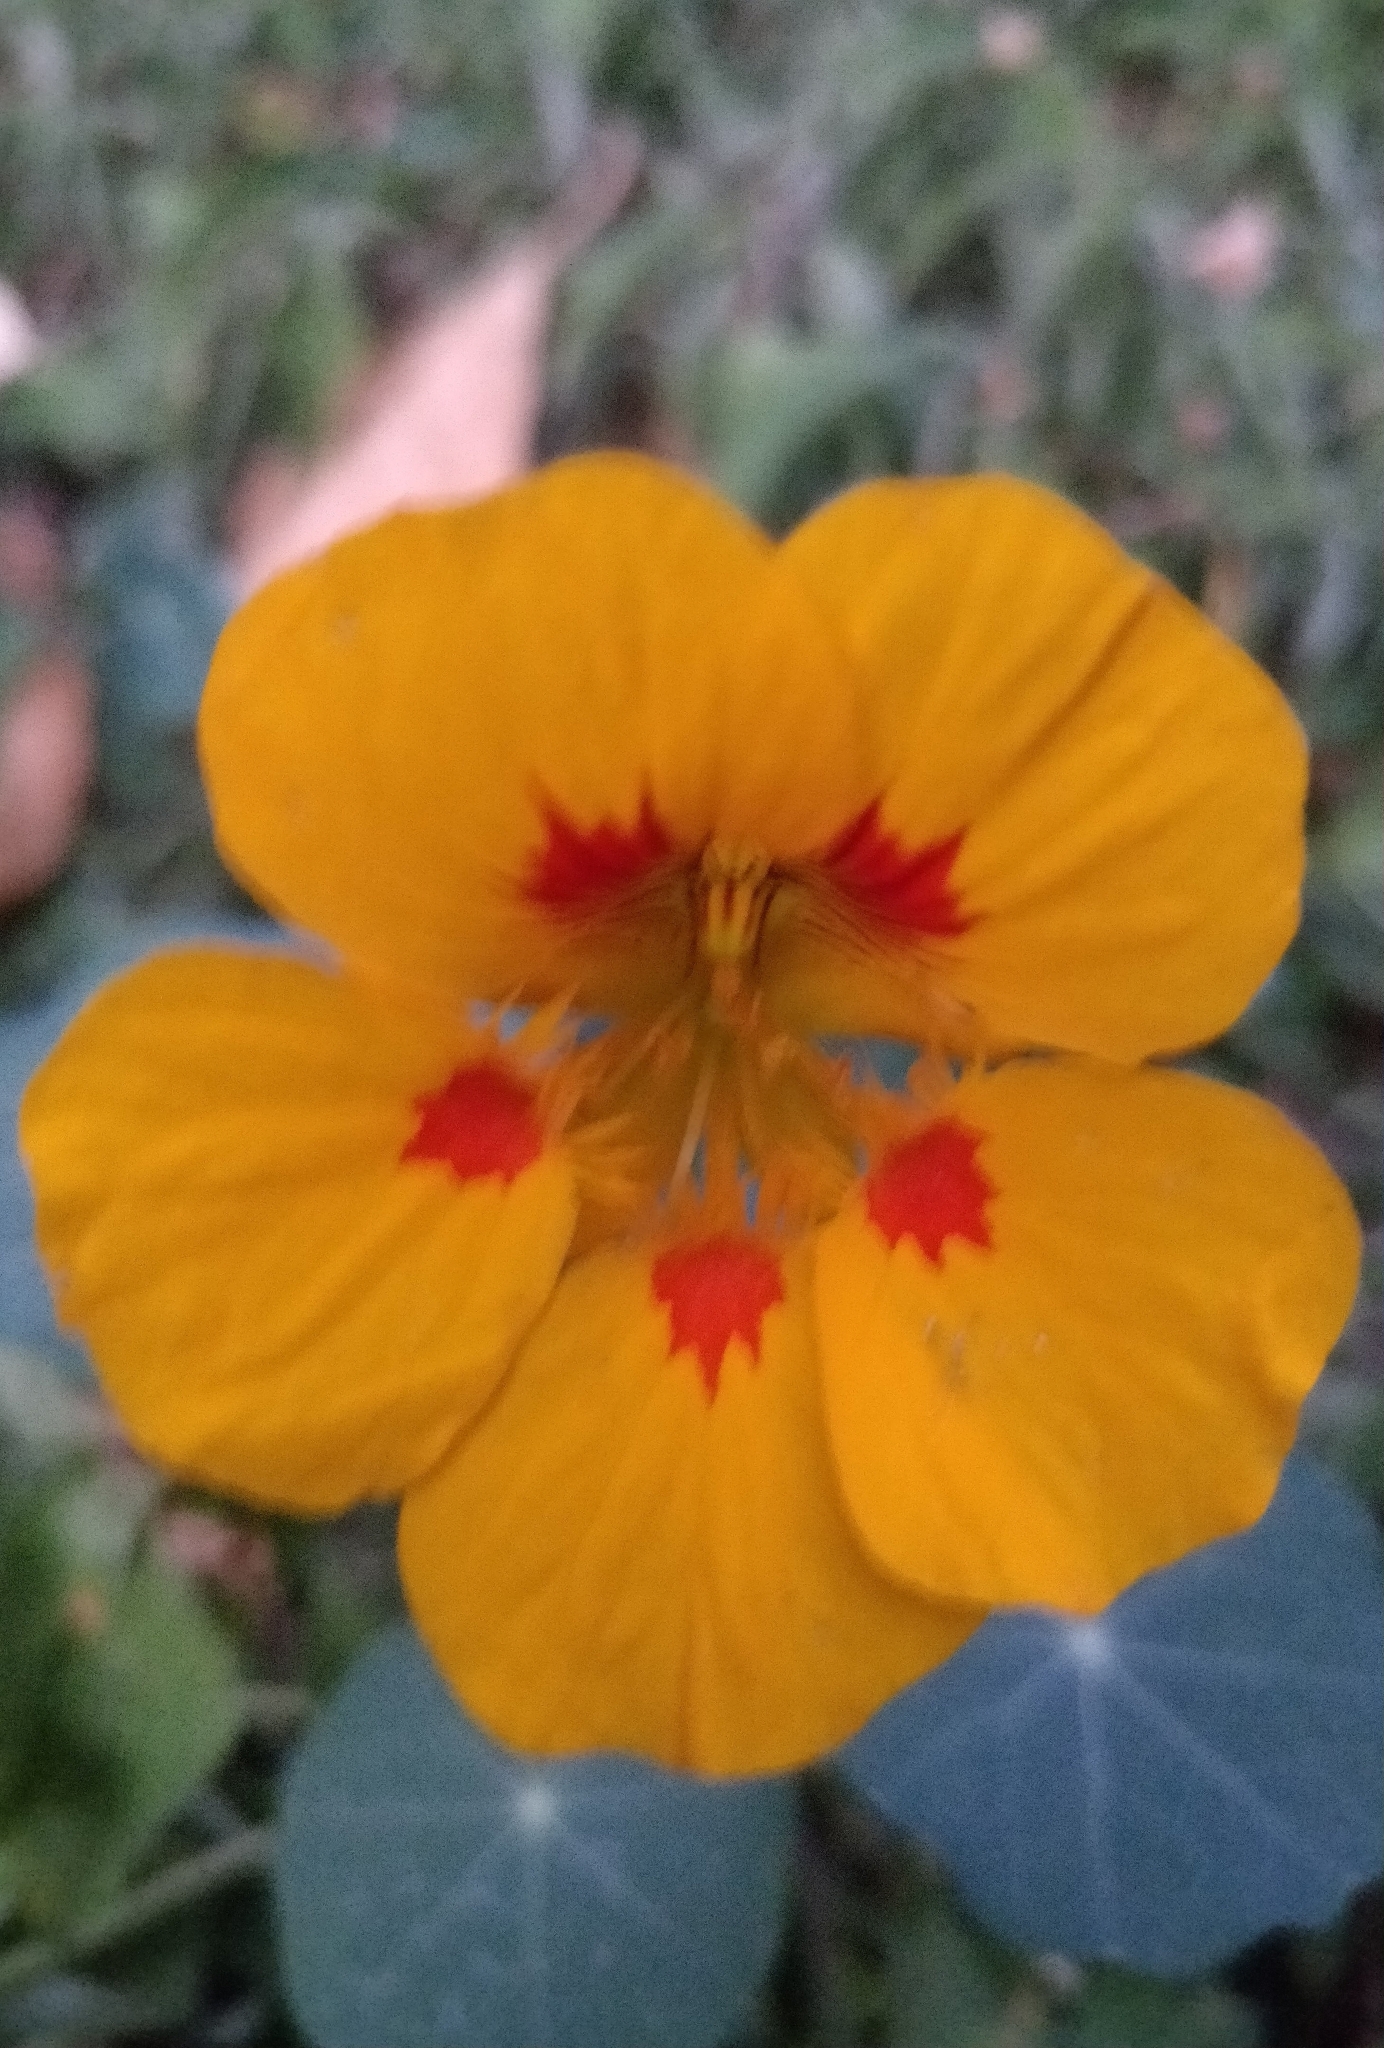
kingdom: Plantae
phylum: Tracheophyta
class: Magnoliopsida
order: Brassicales
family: Tropaeolaceae
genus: Tropaeolum
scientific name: Tropaeolum majus
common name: Nasturtium
